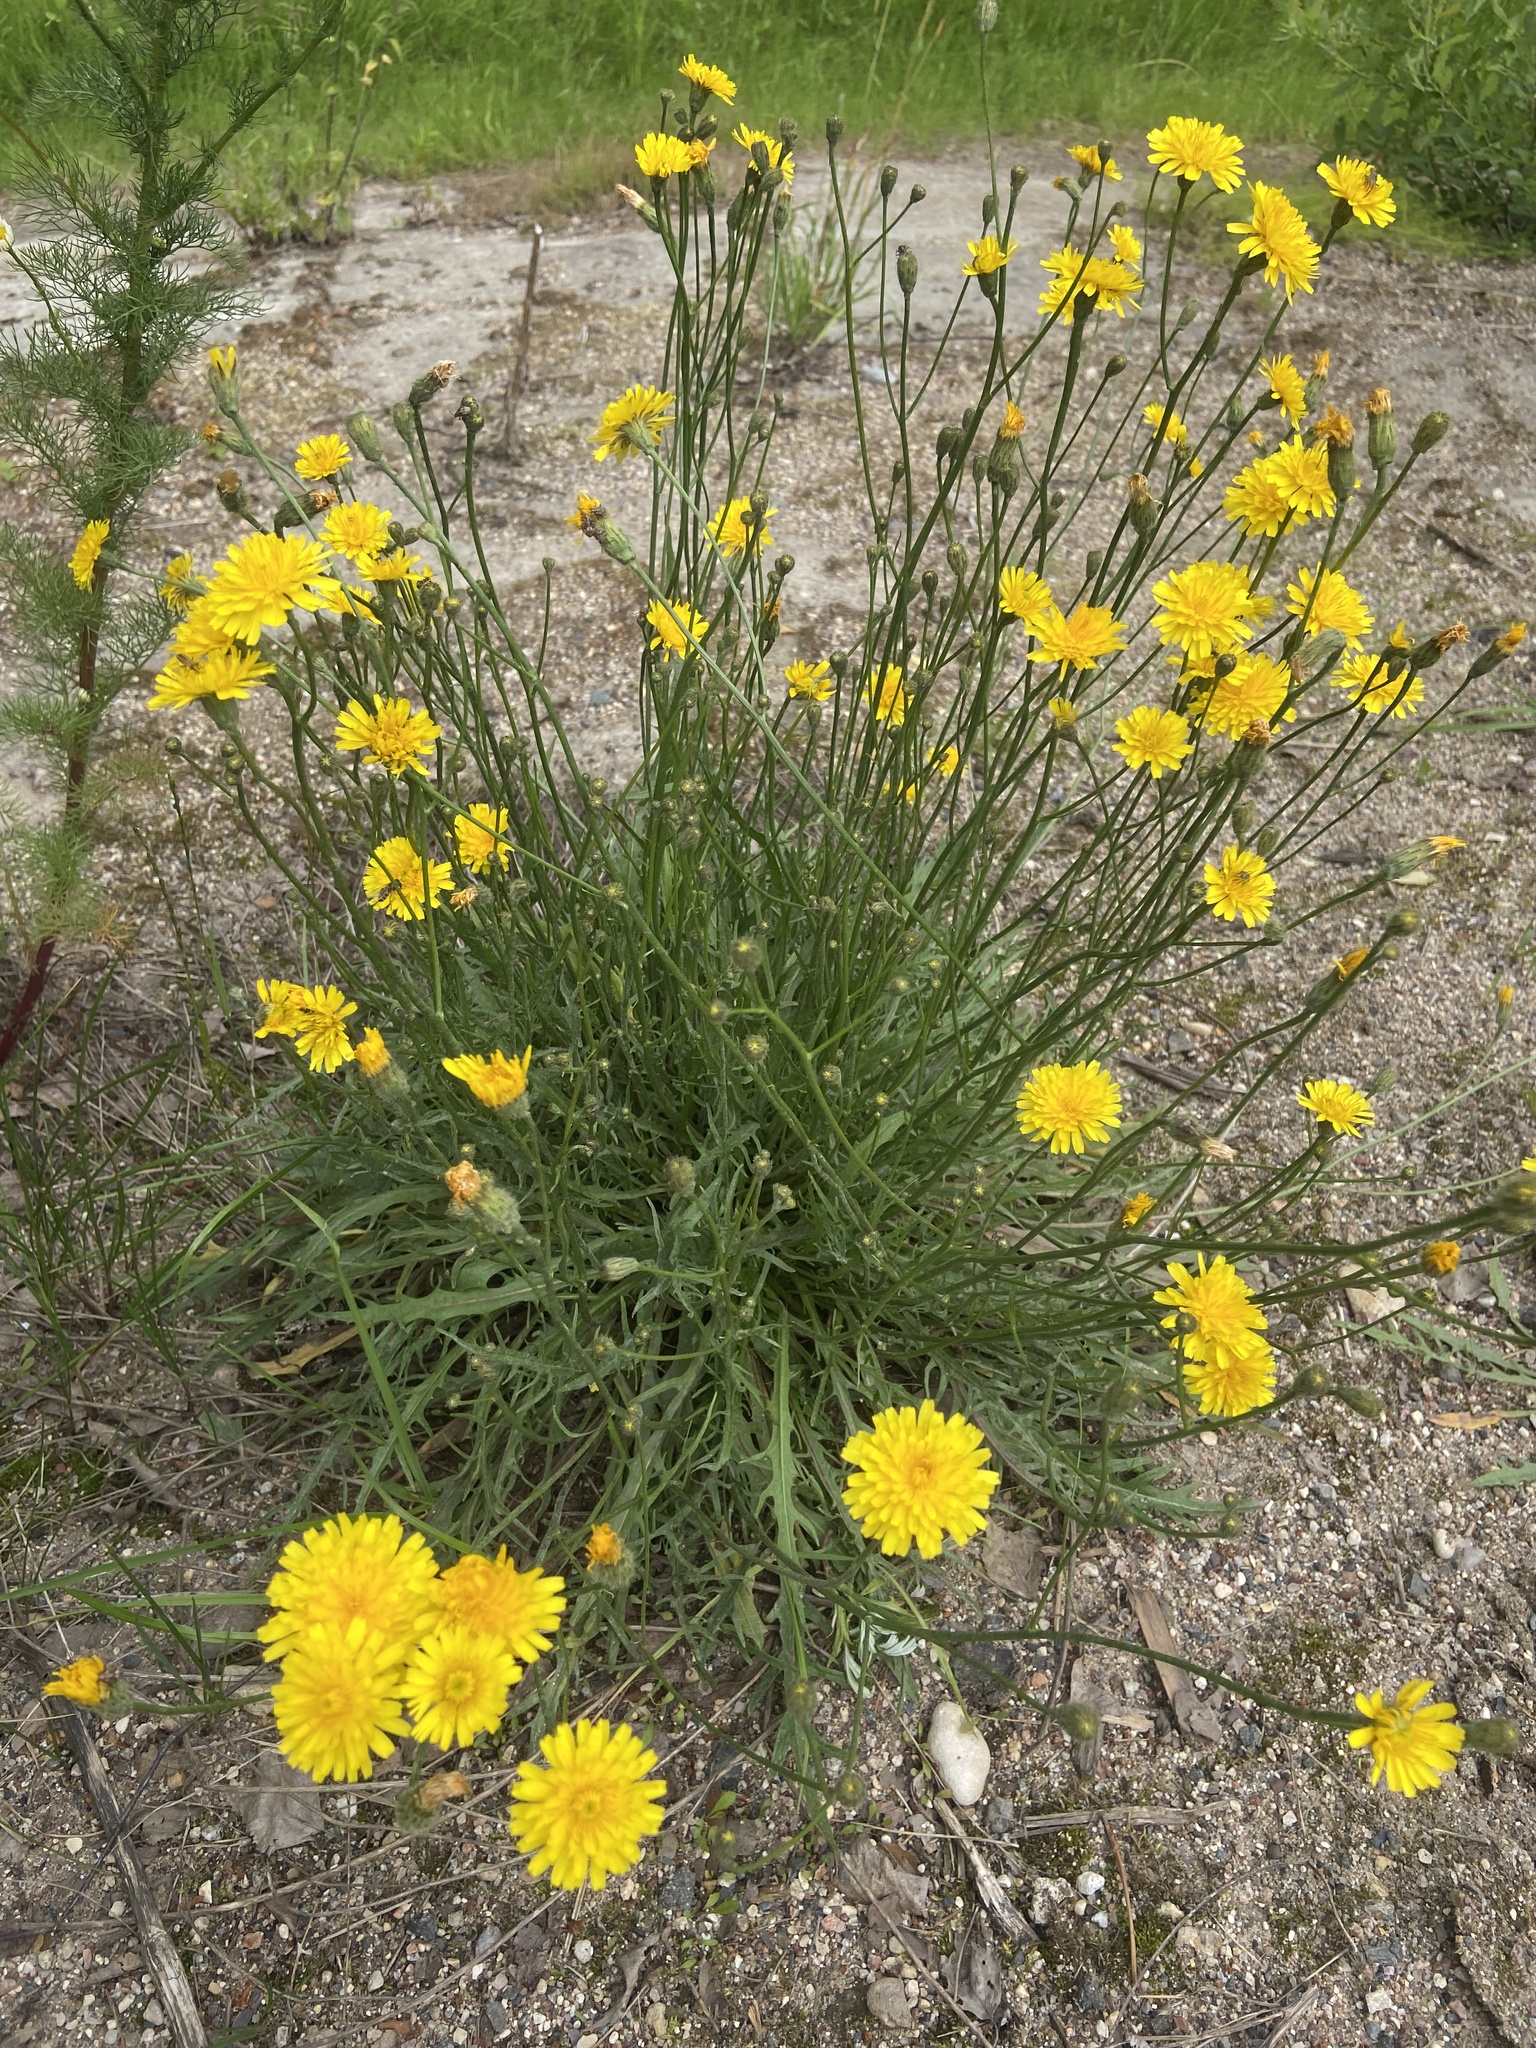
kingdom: Plantae
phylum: Tracheophyta
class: Magnoliopsida
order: Asterales
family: Asteraceae
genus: Scorzoneroides
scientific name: Scorzoneroides autumnalis
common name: Autumn hawkbit
